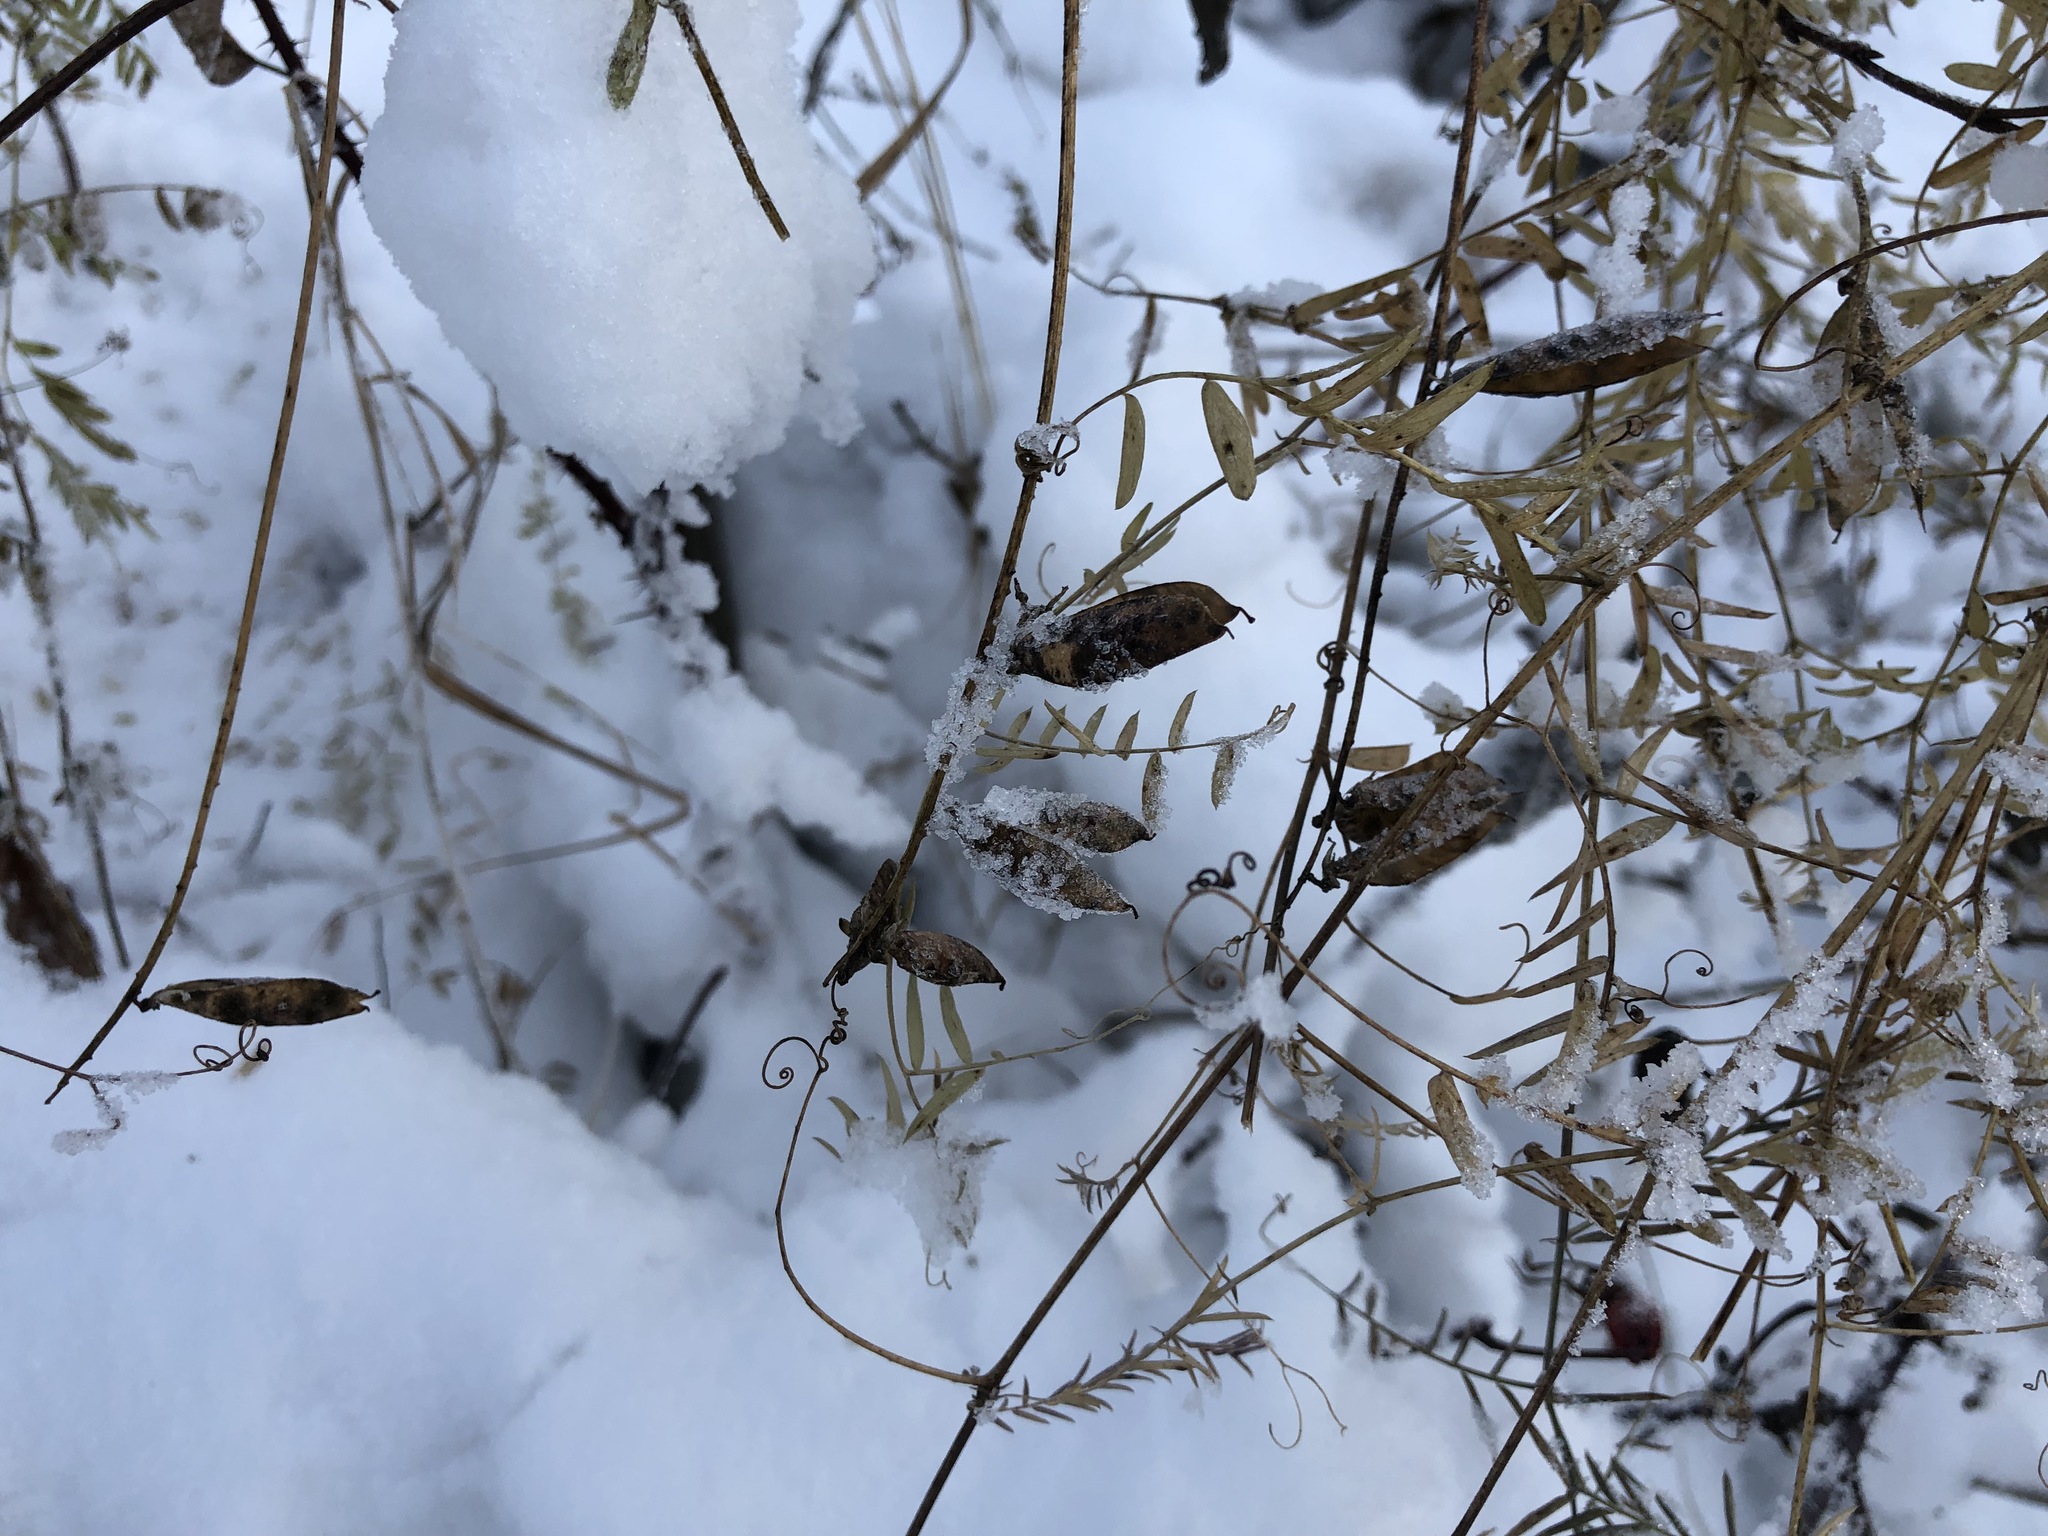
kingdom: Plantae
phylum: Tracheophyta
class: Magnoliopsida
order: Fabales
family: Fabaceae
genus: Vicia
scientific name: Vicia cracca
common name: Bird vetch
